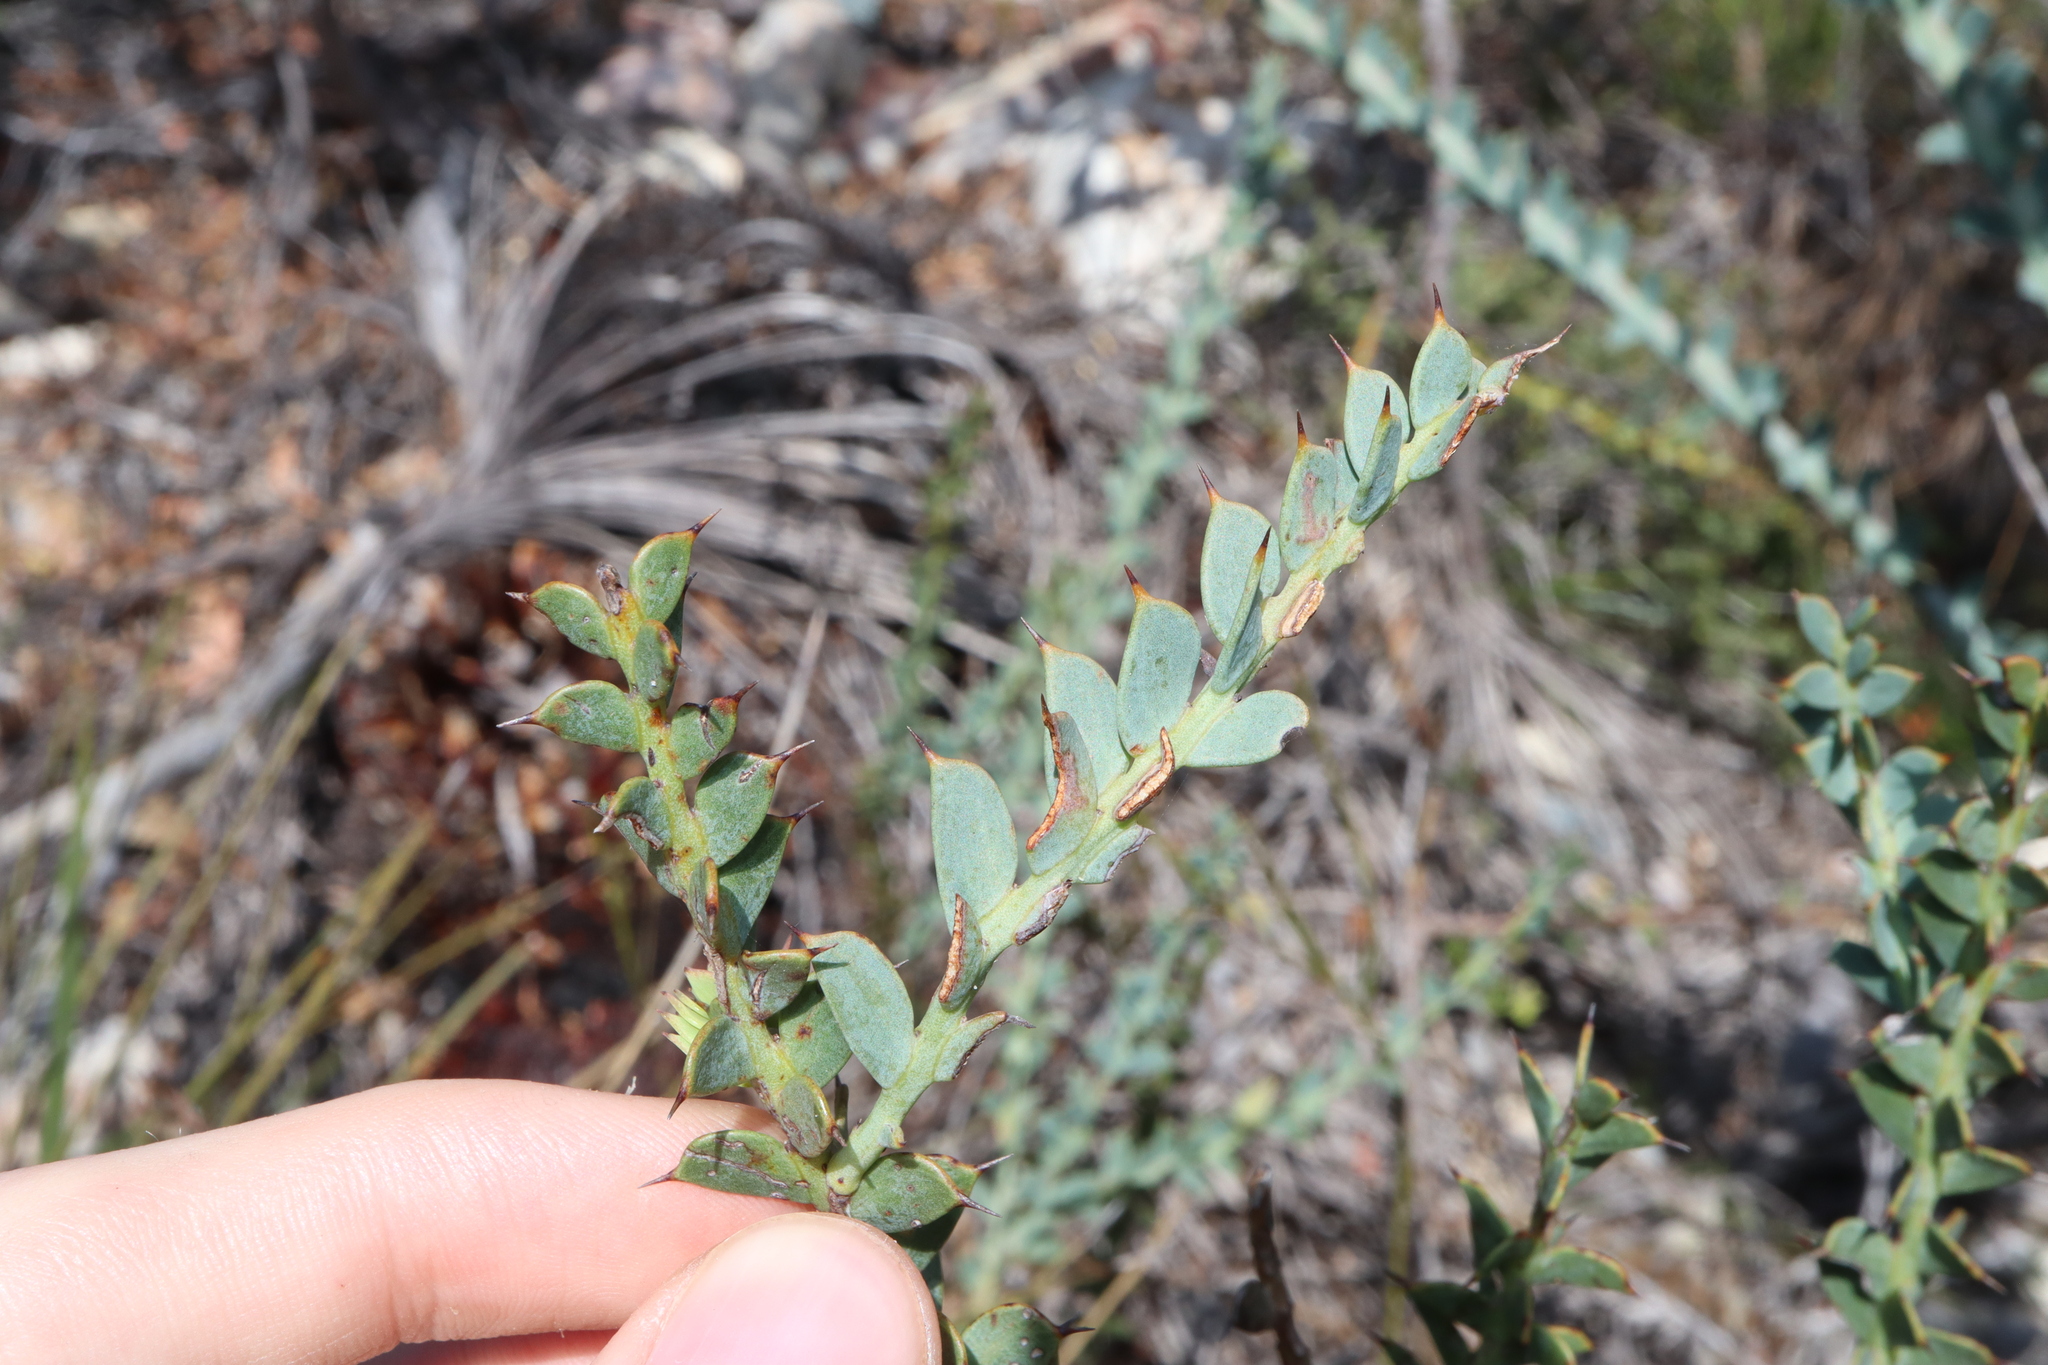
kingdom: Plantae
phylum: Tracheophyta
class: Magnoliopsida
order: Fabales
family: Fabaceae
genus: Daviesia
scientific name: Daviesia striata
